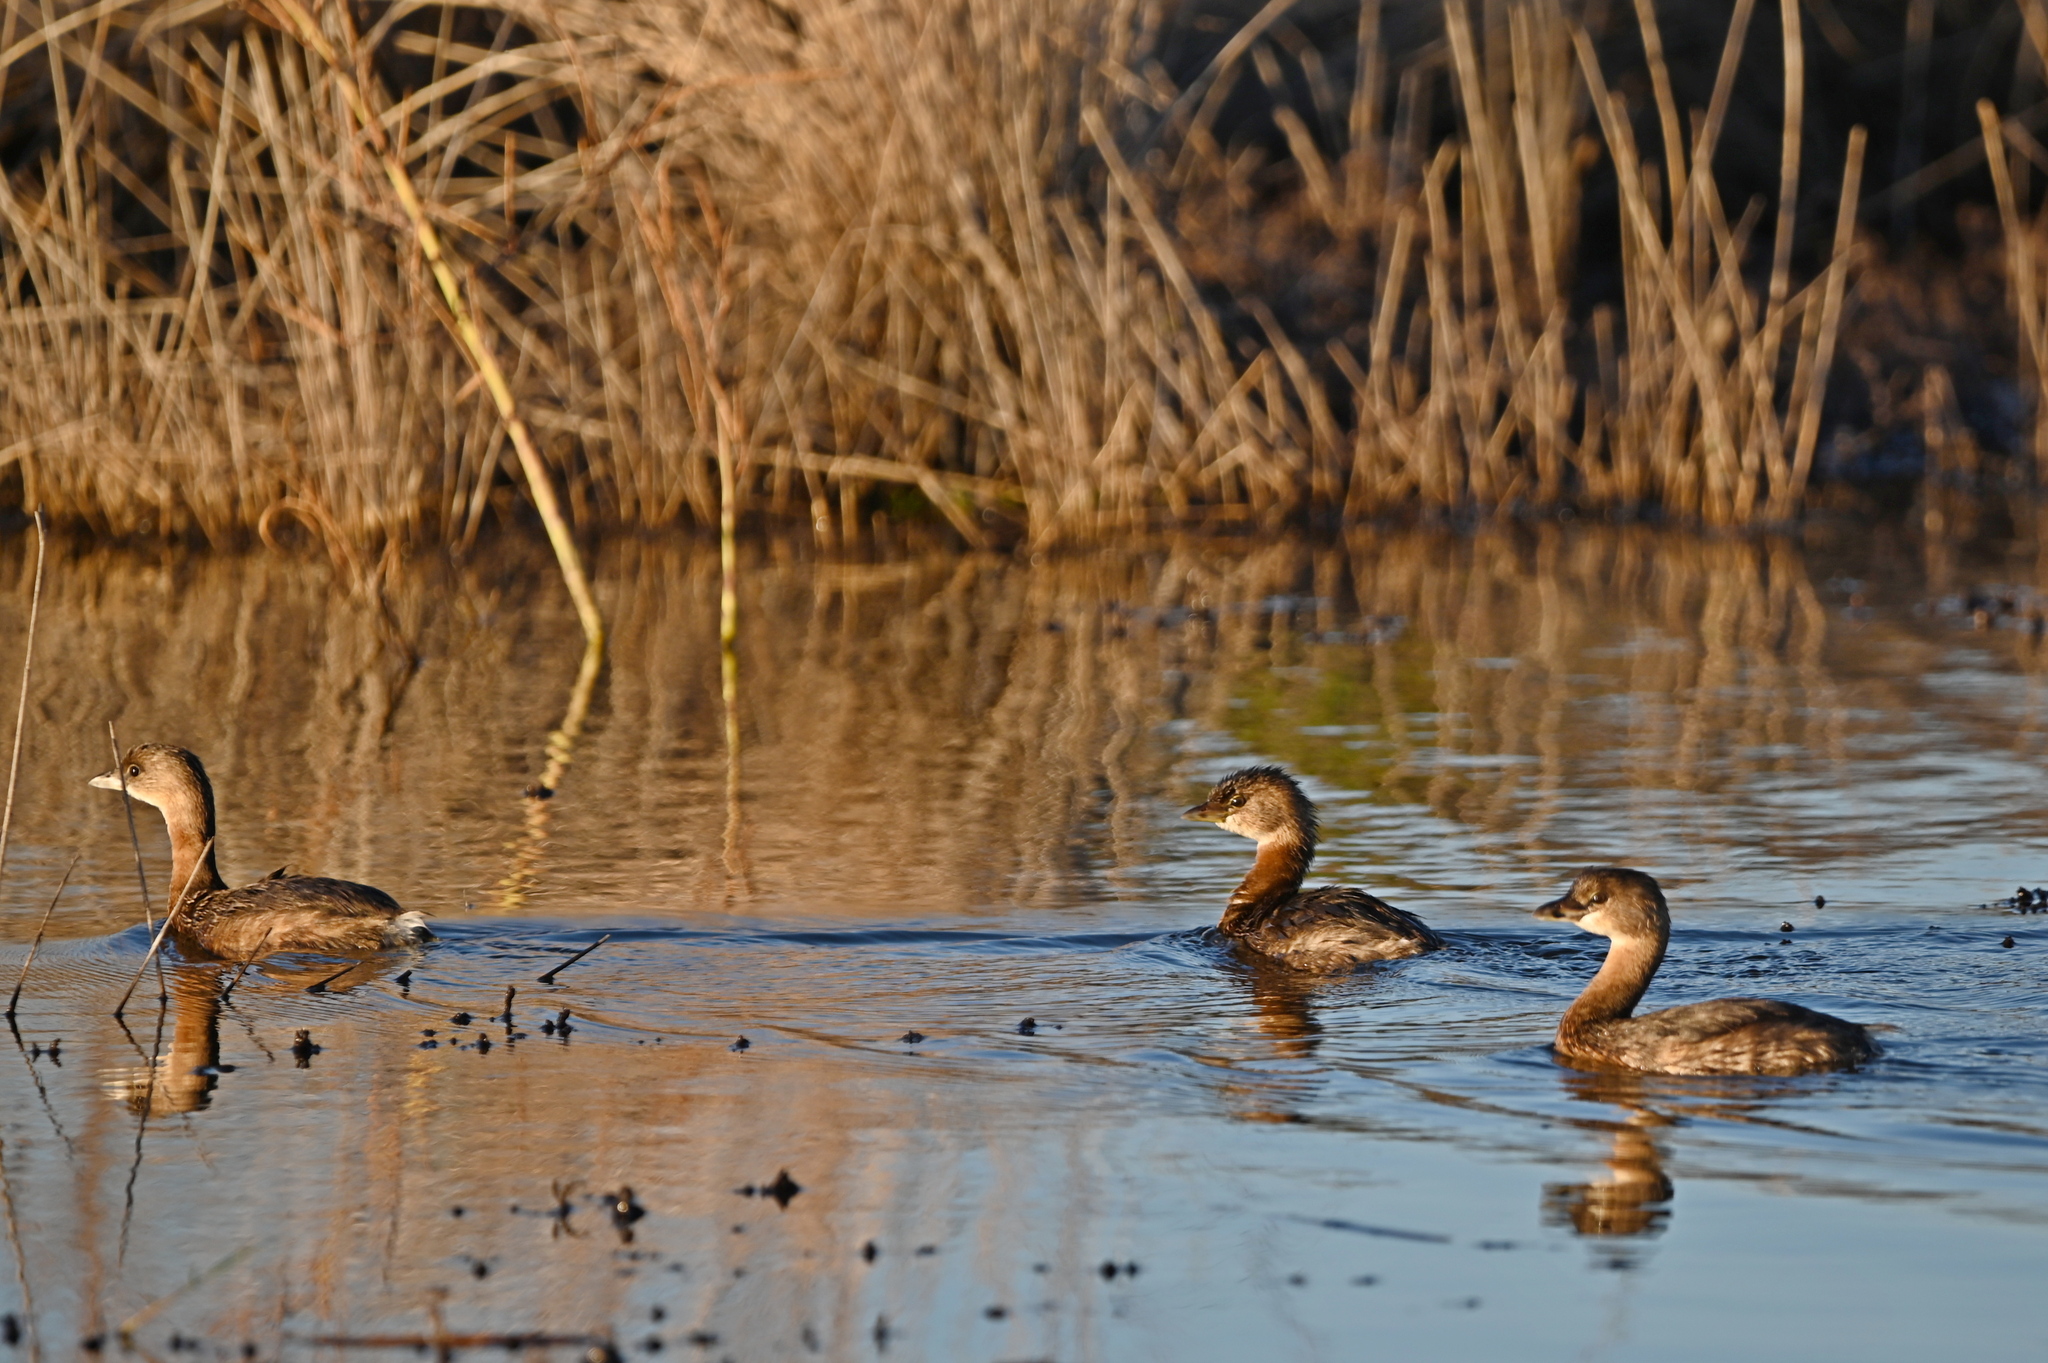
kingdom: Animalia
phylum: Chordata
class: Aves
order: Podicipediformes
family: Podicipedidae
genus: Podilymbus
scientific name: Podilymbus podiceps
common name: Pied-billed grebe
